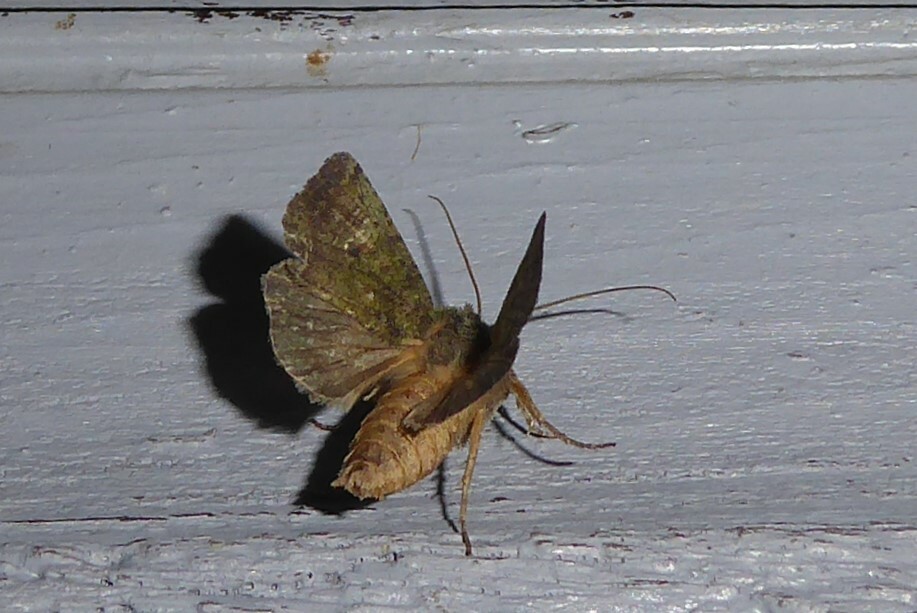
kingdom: Animalia
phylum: Arthropoda
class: Insecta
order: Lepidoptera
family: Noctuidae
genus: Meterana
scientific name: Meterana levis
